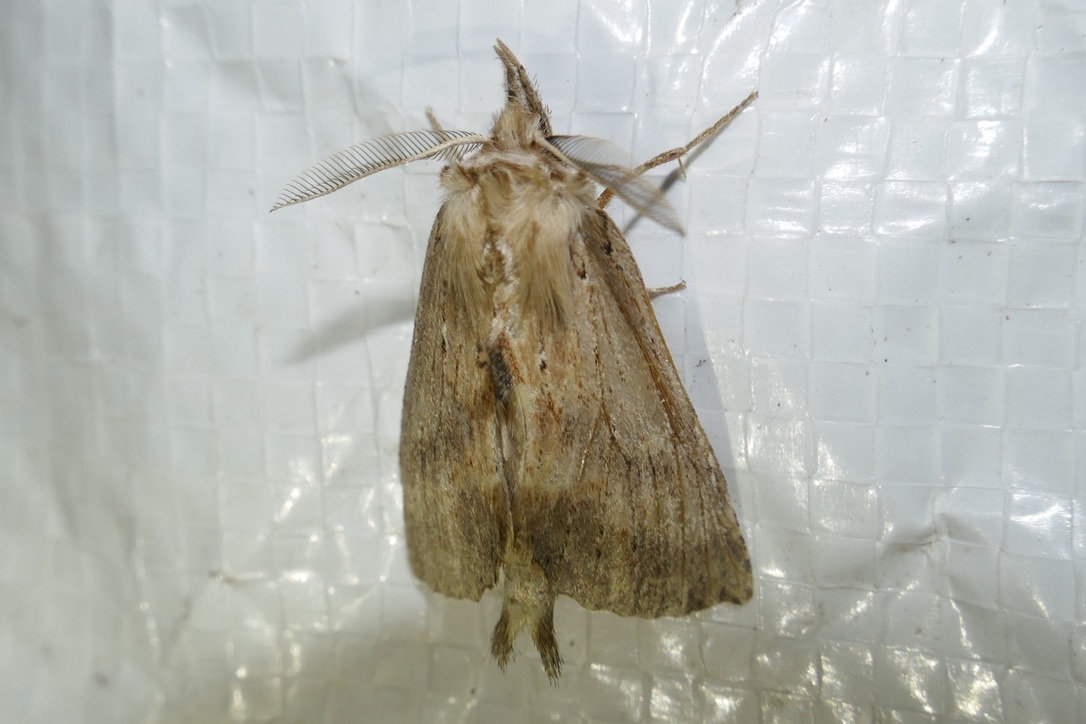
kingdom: Animalia
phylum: Arthropoda
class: Insecta
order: Lepidoptera
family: Notodontidae
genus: Pterostoma
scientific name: Pterostoma palpina
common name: Pale prominent
